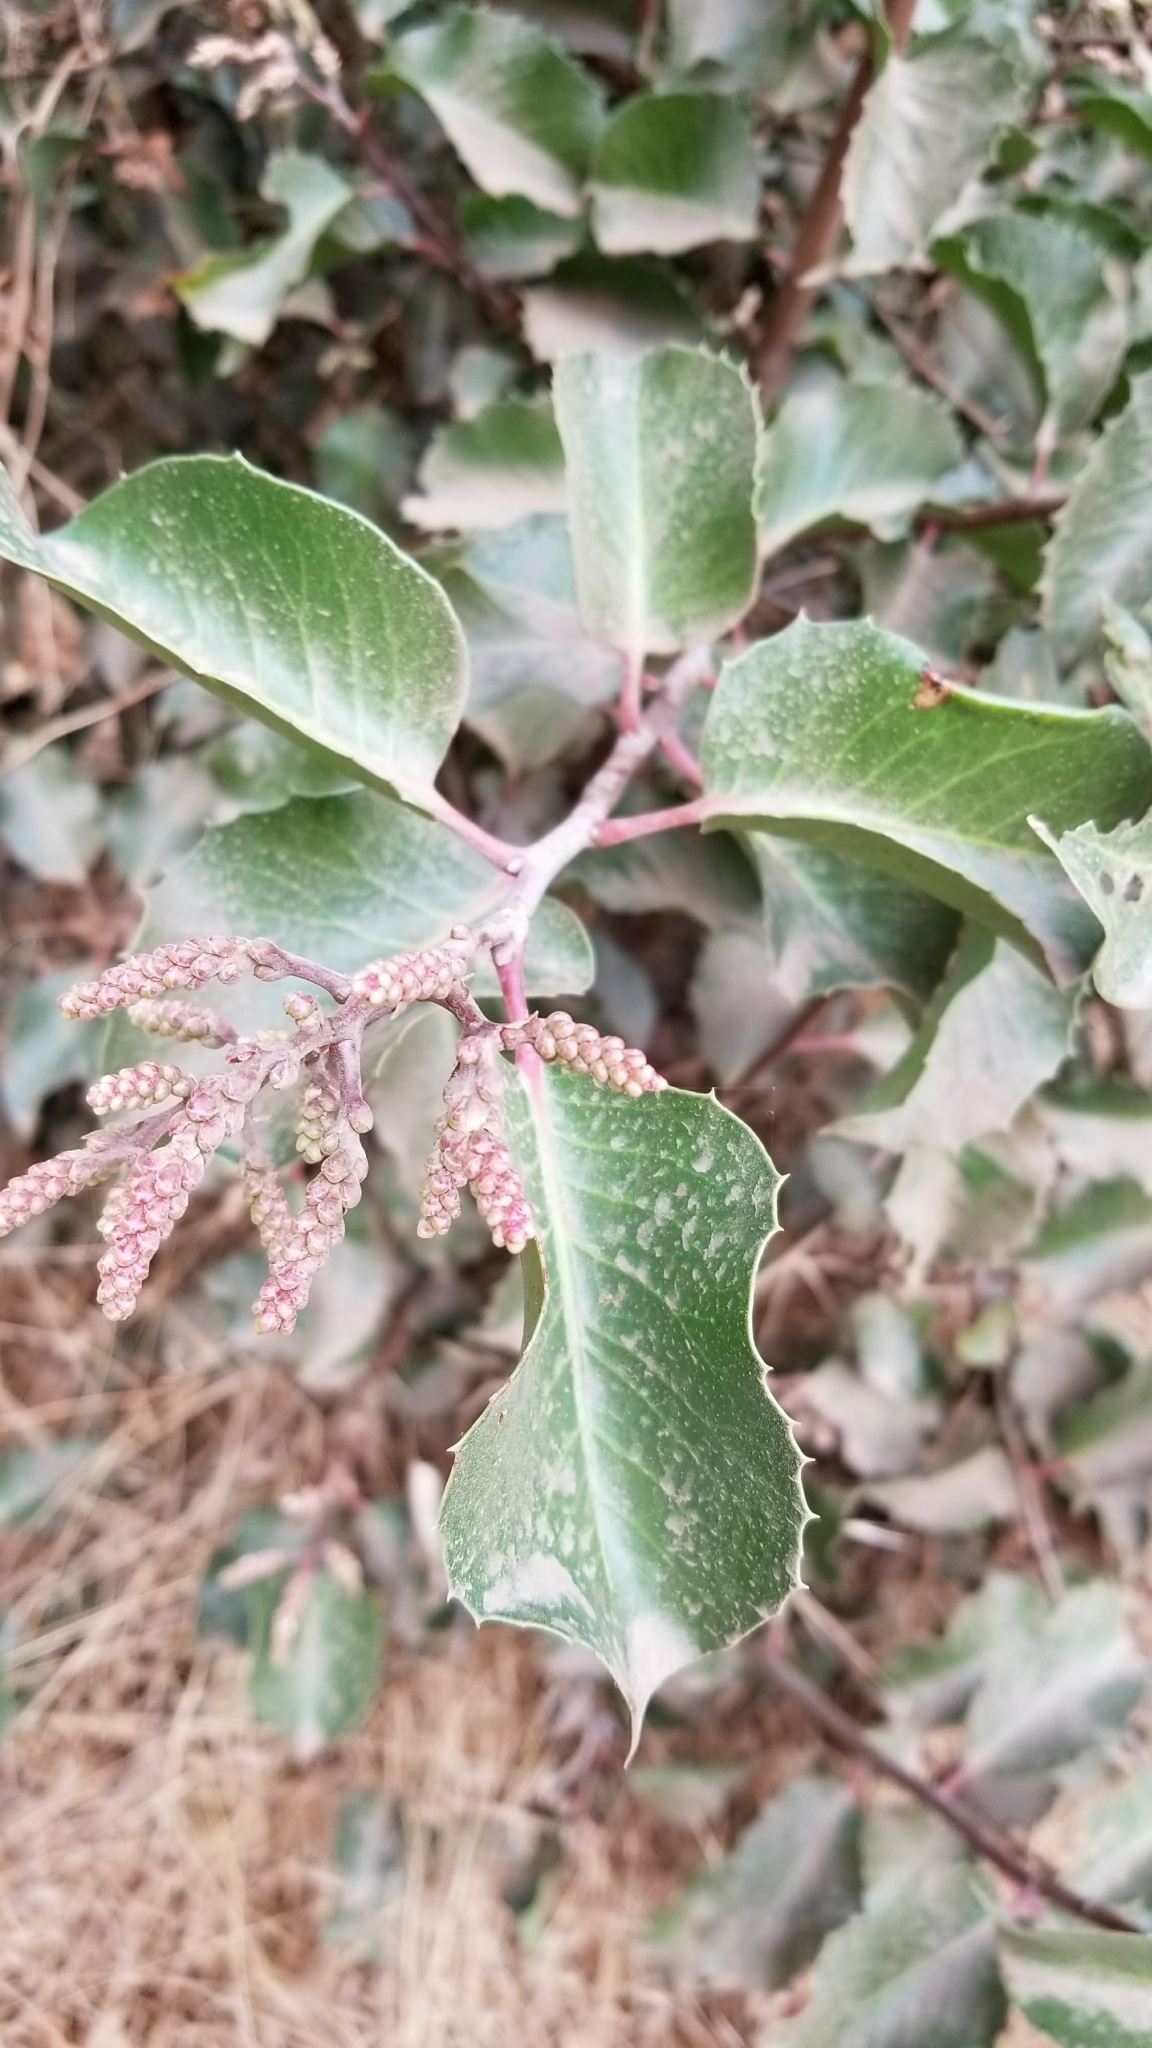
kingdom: Plantae
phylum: Tracheophyta
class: Magnoliopsida
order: Sapindales
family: Anacardiaceae
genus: Rhus
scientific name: Rhus ovata
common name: Sugar sumac
